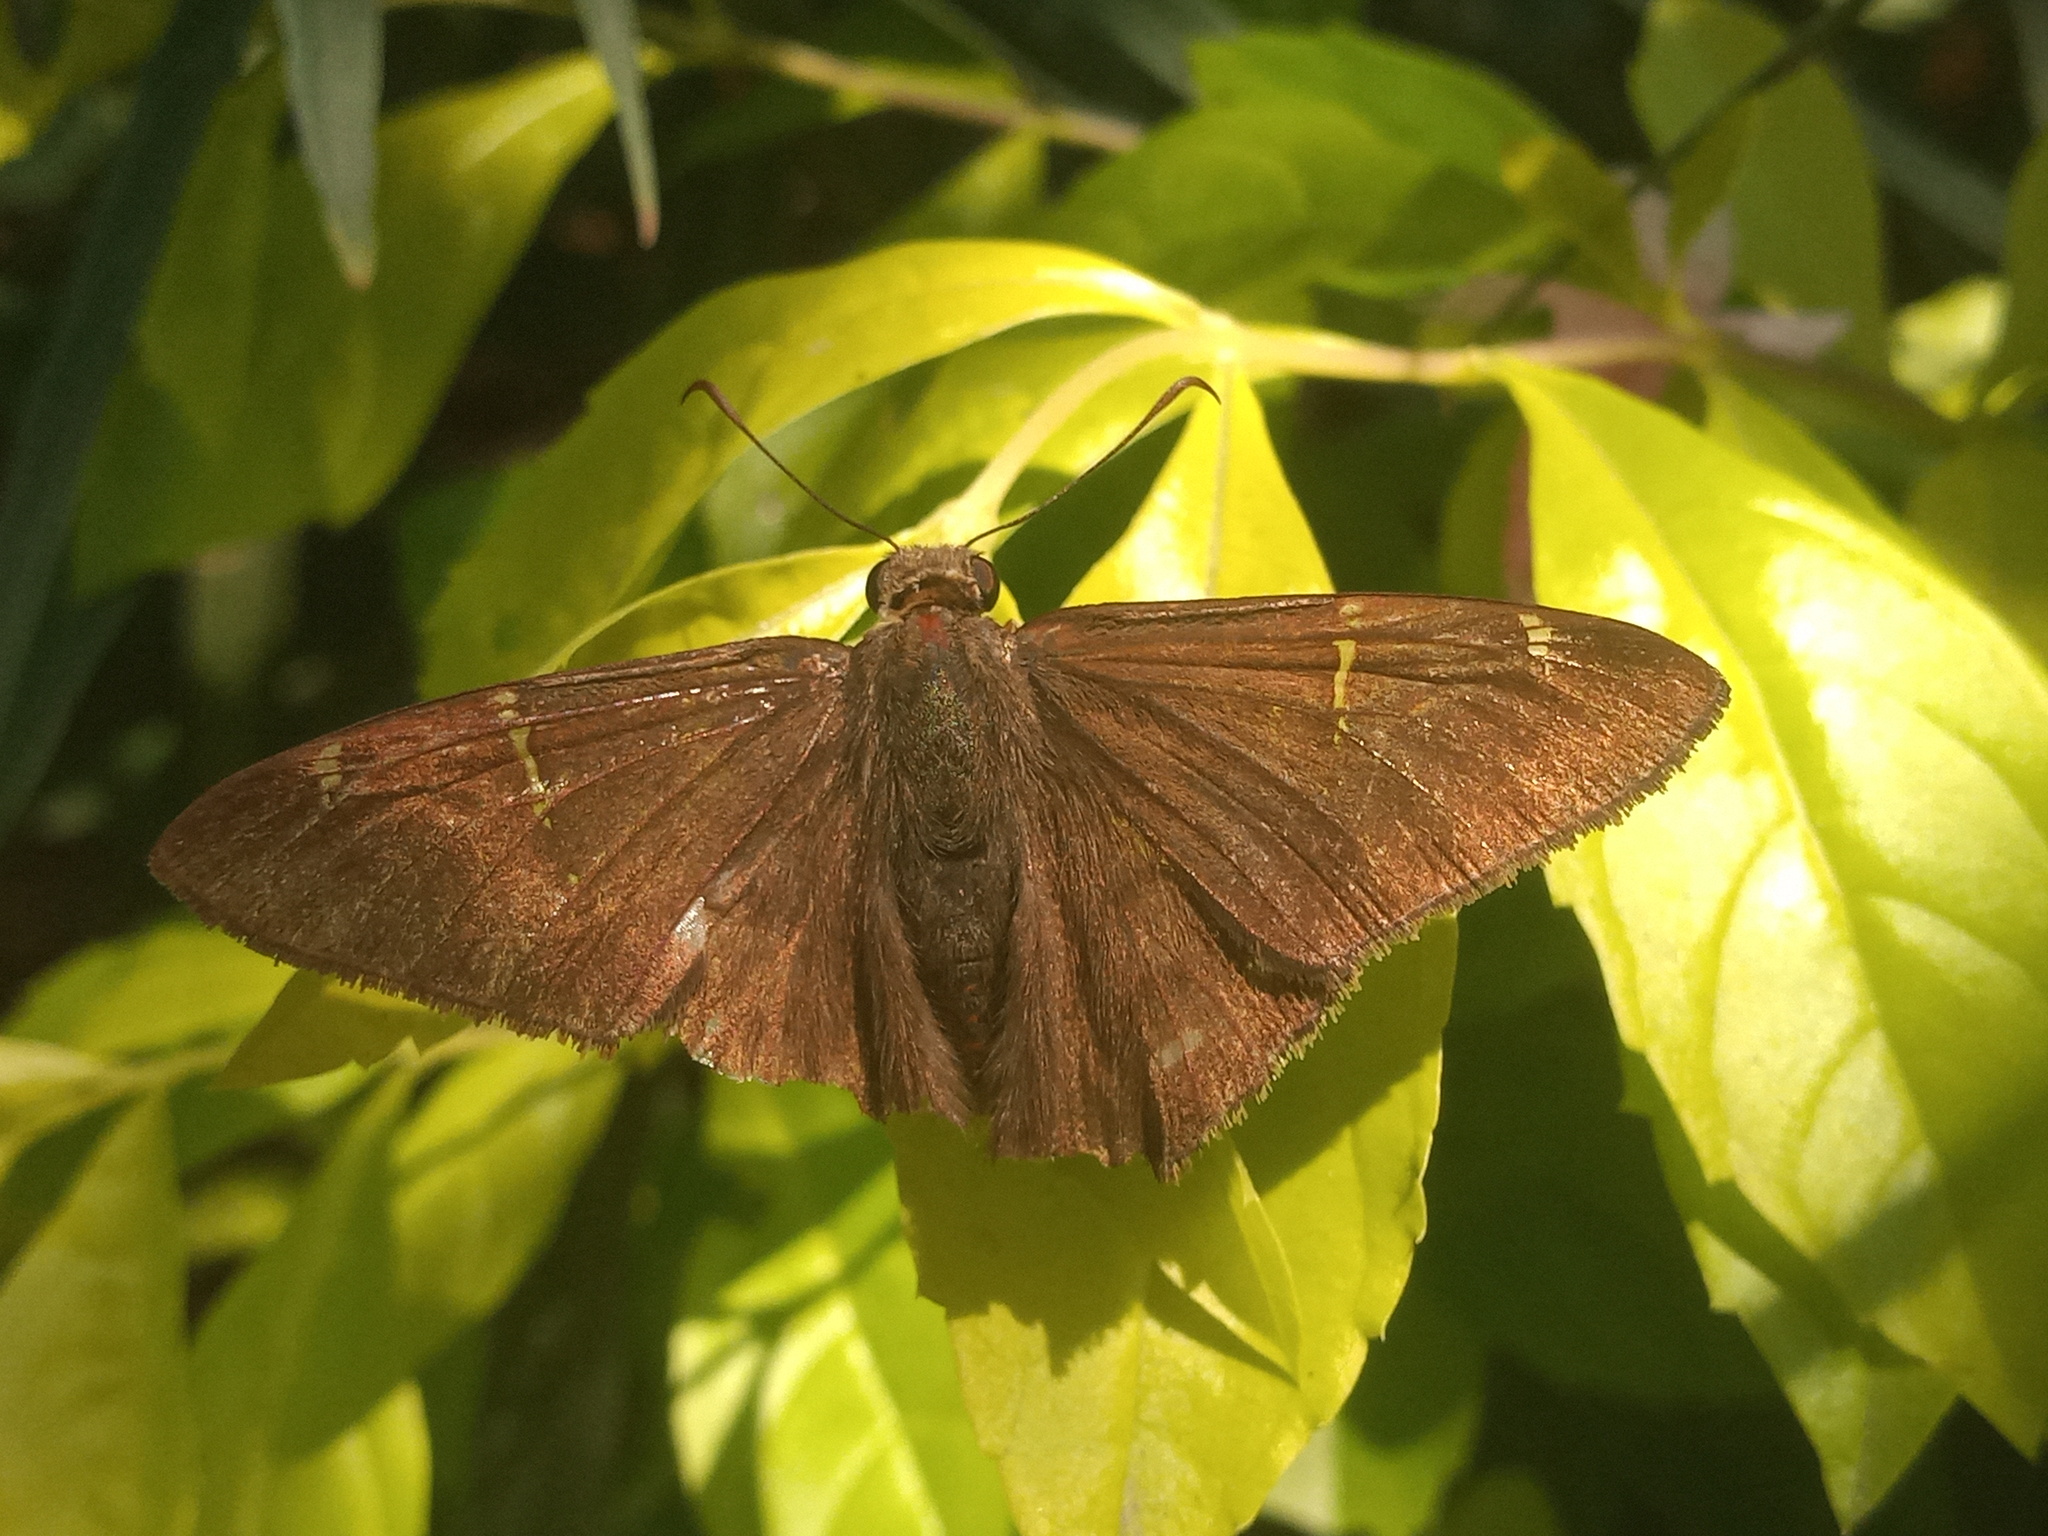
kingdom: Animalia
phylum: Arthropoda
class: Insecta
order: Lepidoptera
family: Hesperiidae
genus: Urbanus
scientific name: Urbanus procne
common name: Brown longtail
